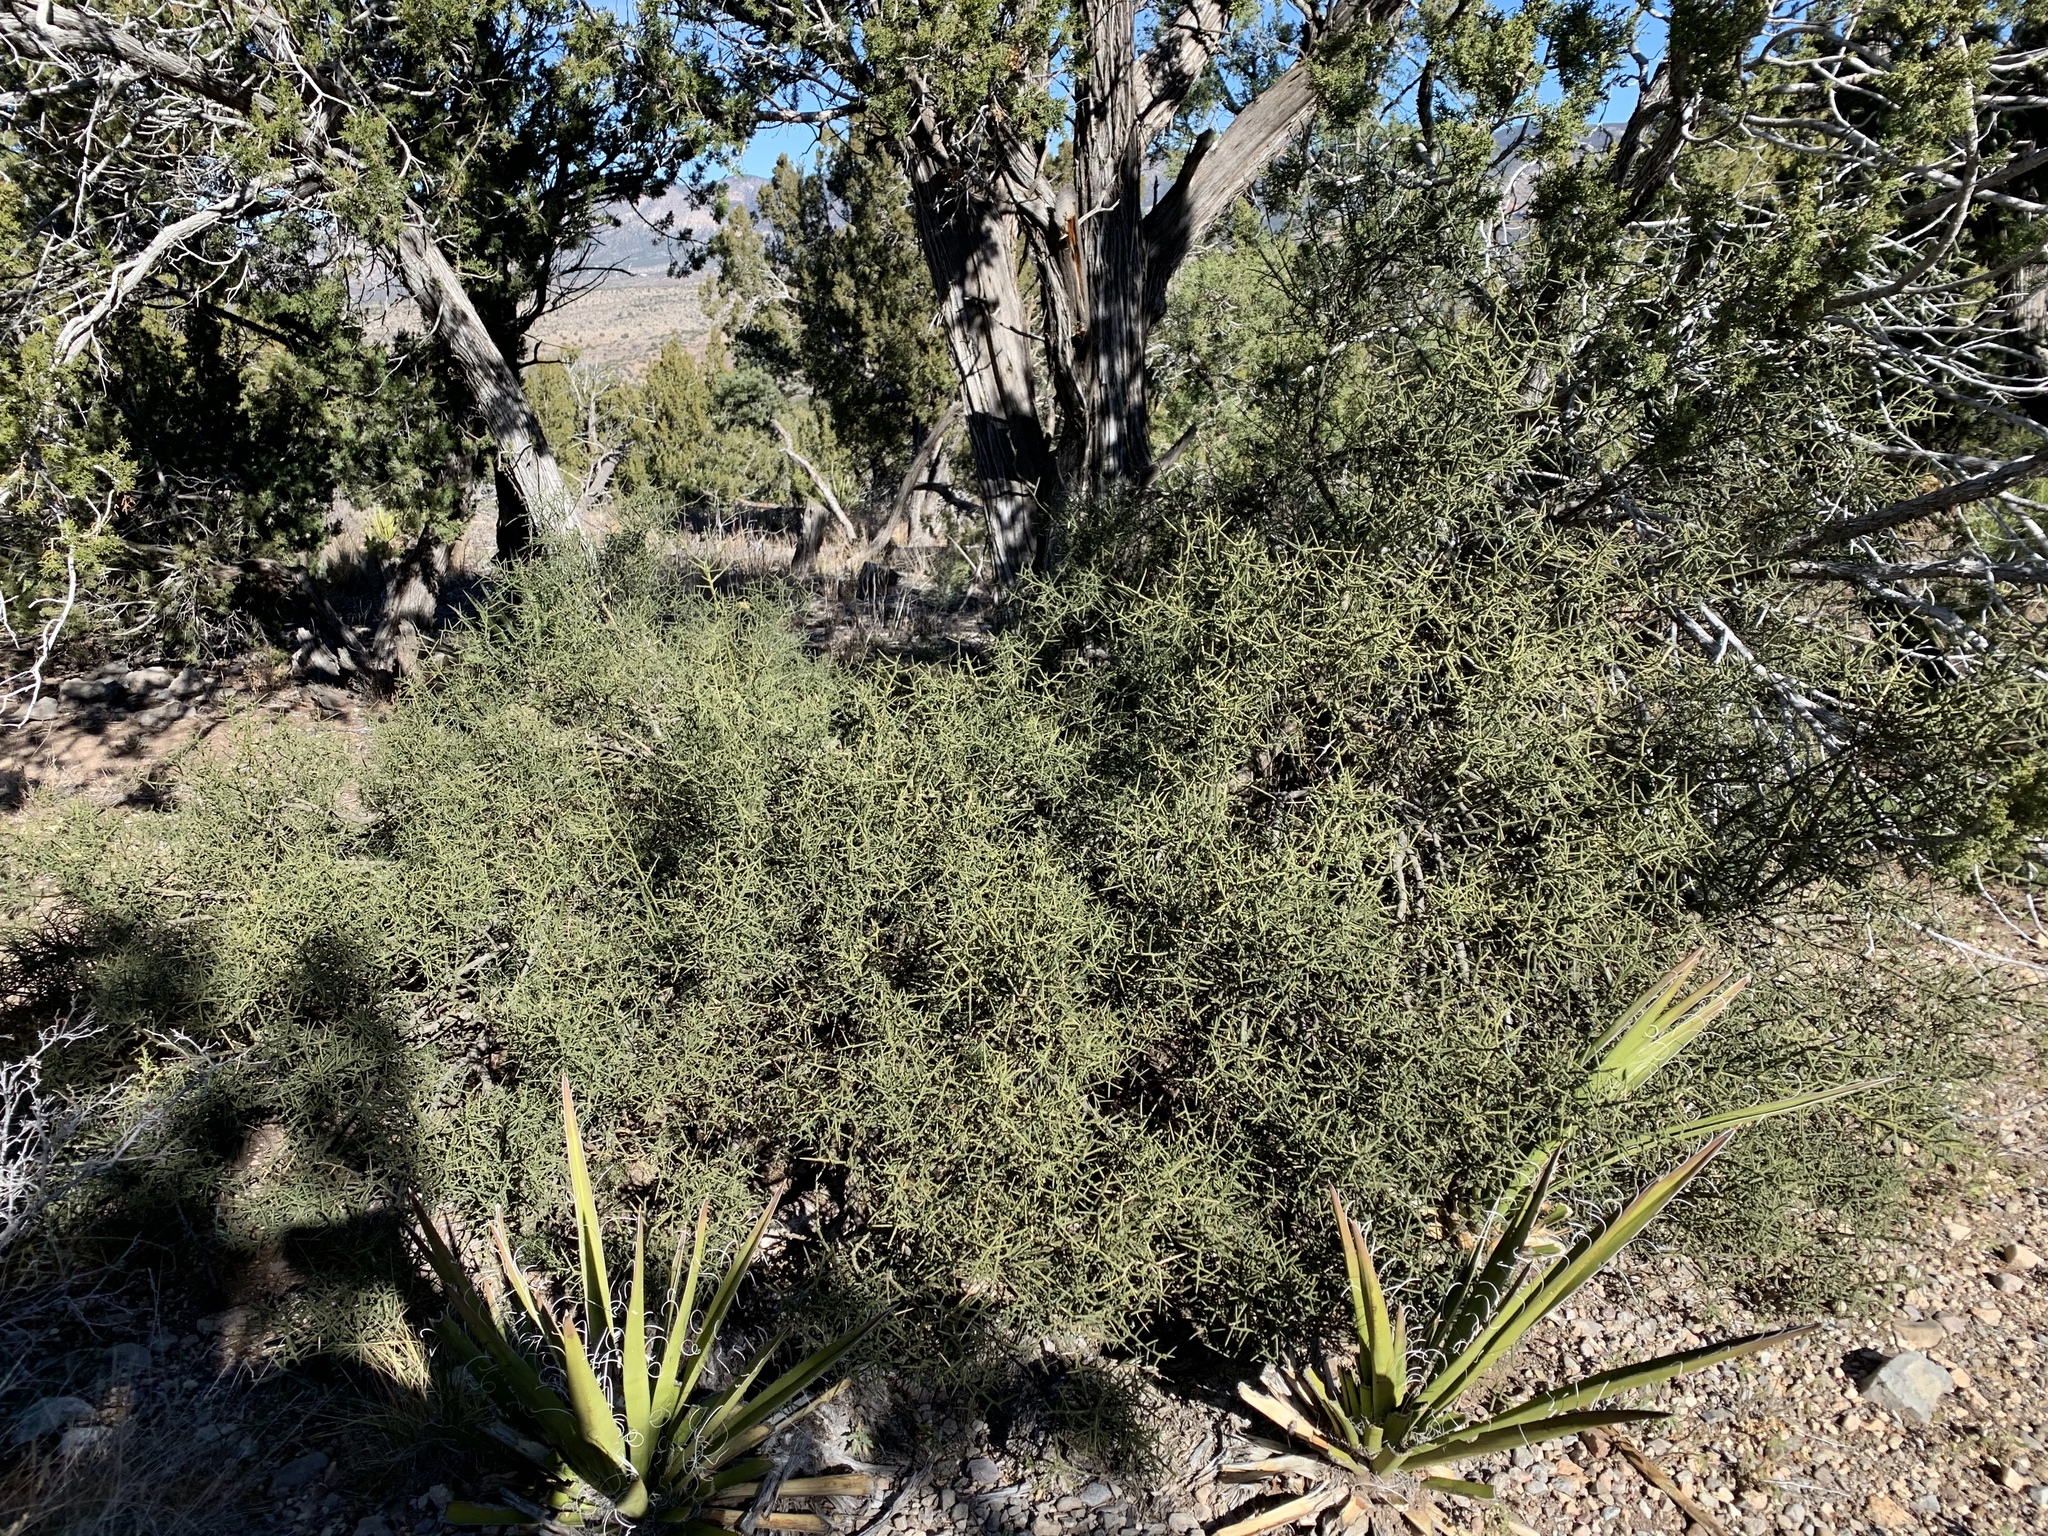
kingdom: Plantae
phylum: Tracheophyta
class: Magnoliopsida
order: Brassicales
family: Koeberliniaceae
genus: Koeberlinia
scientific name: Koeberlinia spinosa
